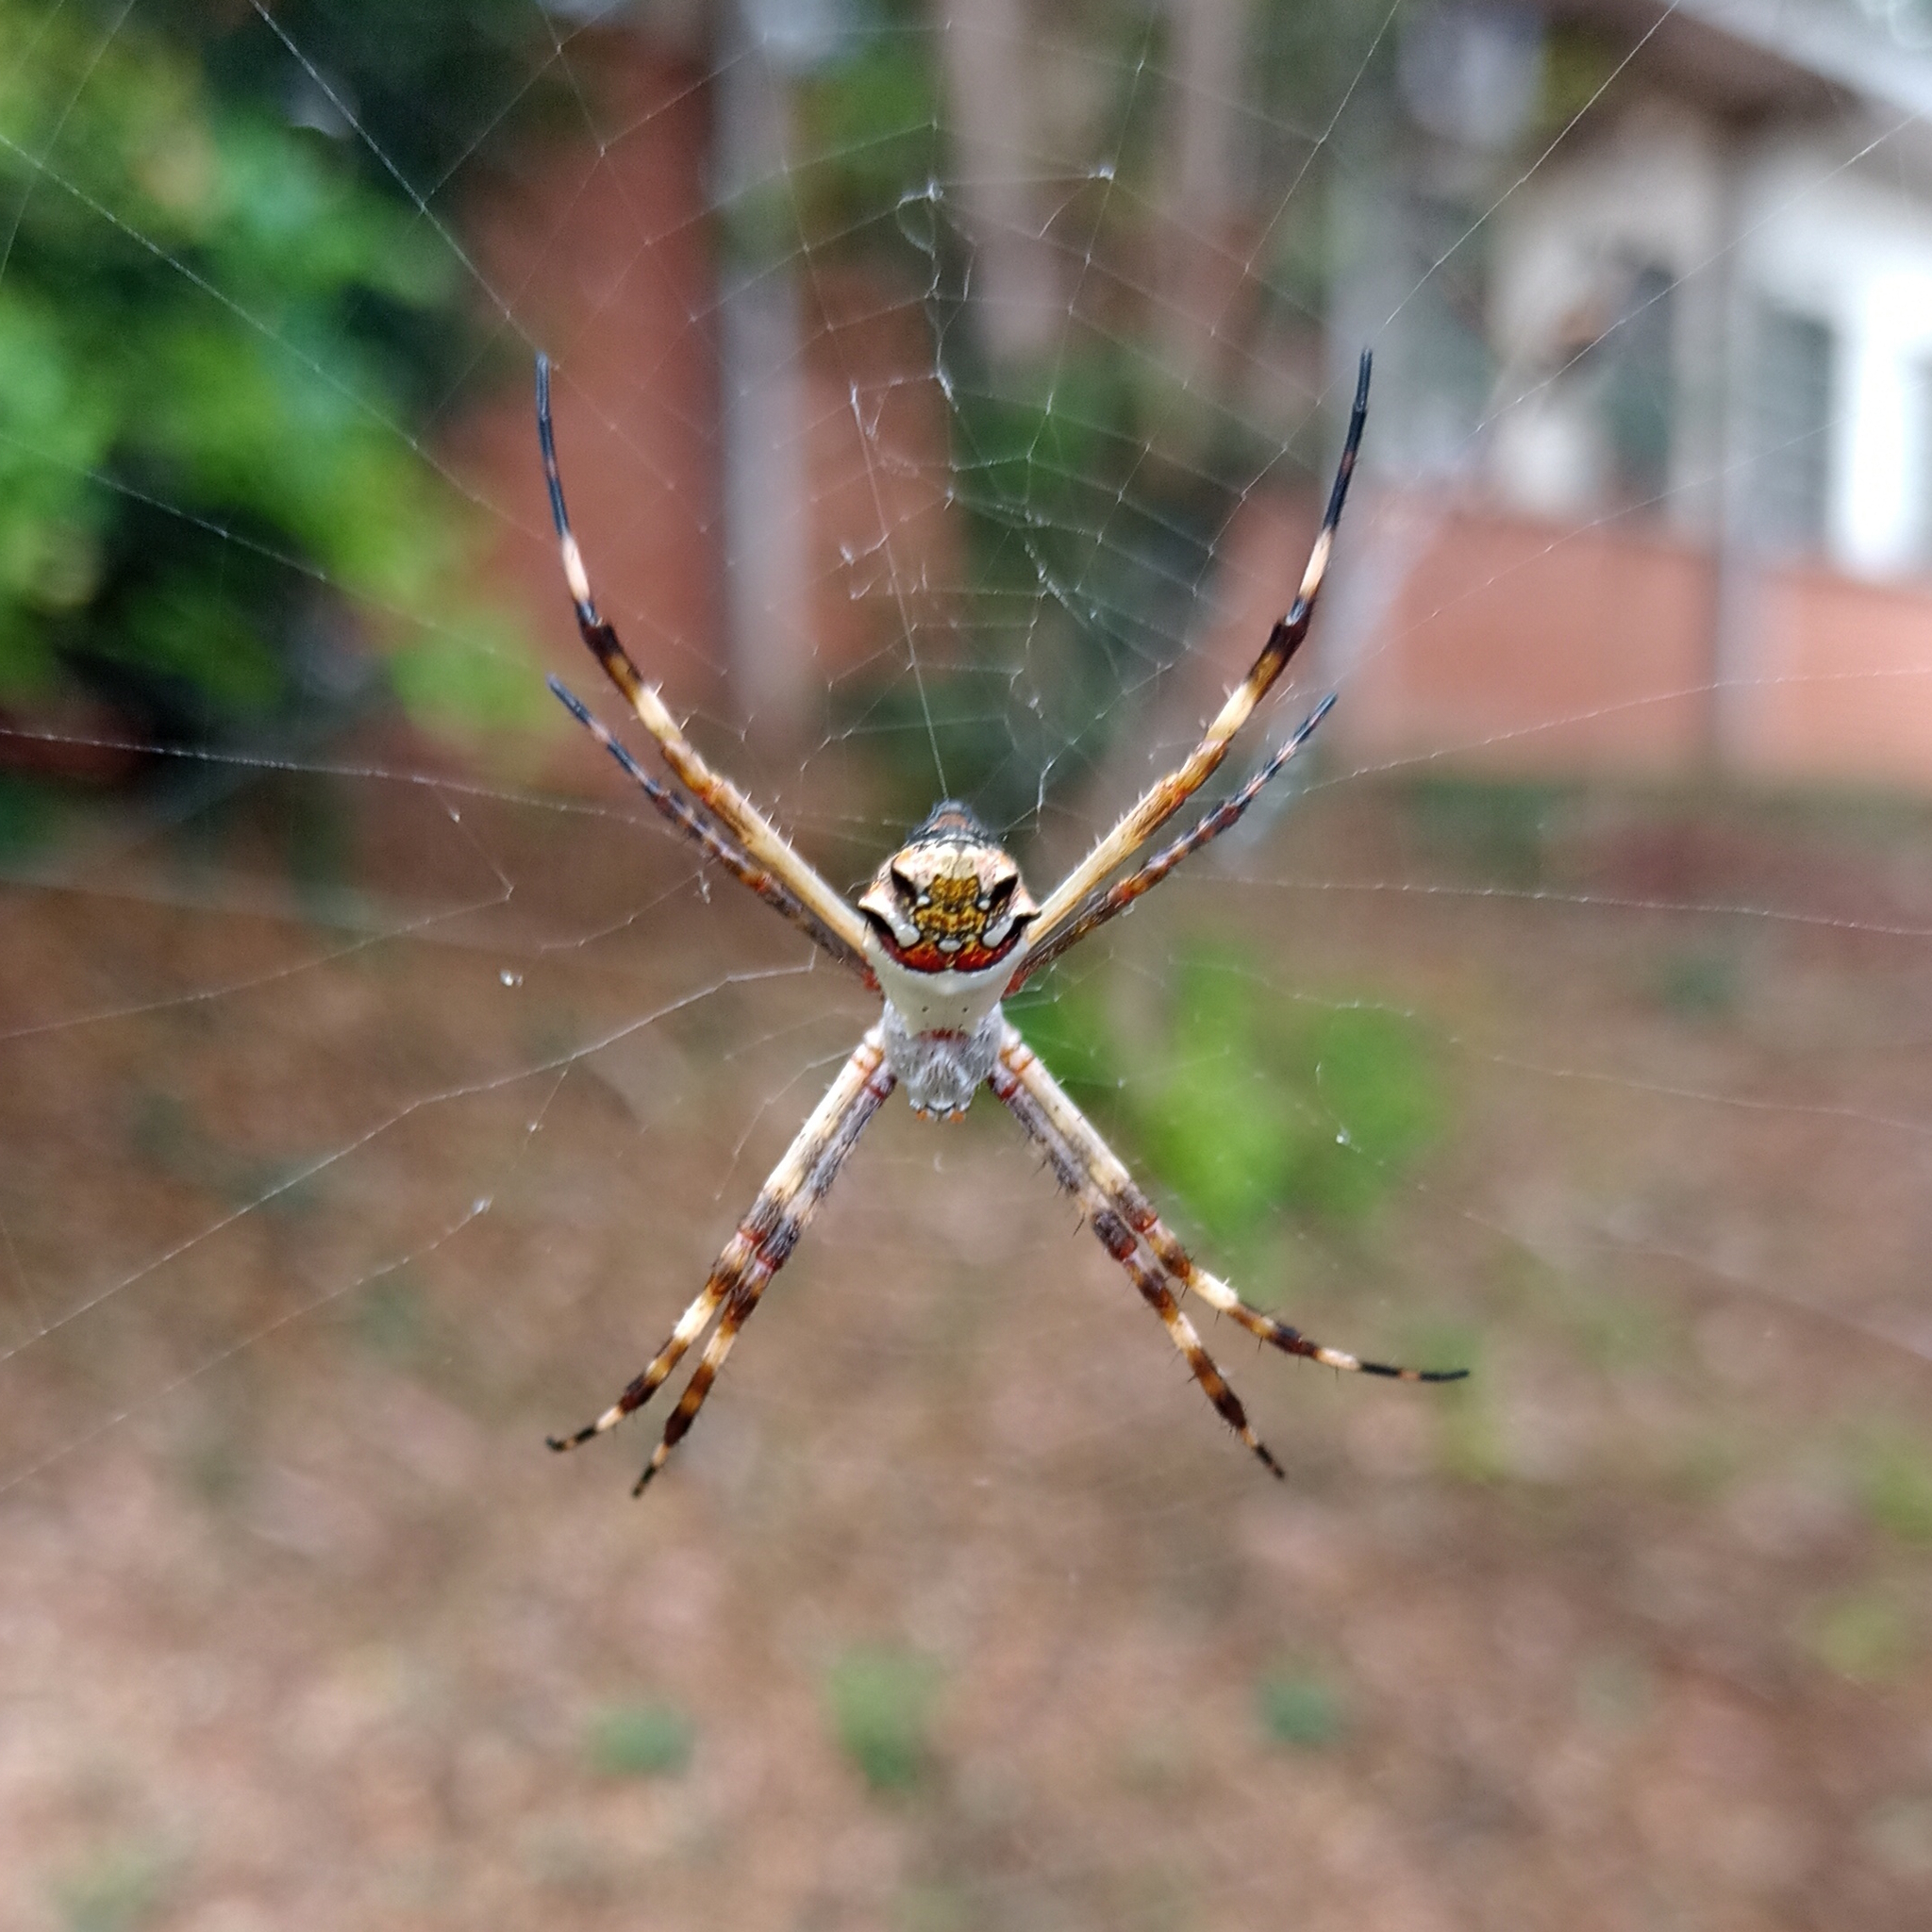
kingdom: Animalia
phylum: Arthropoda
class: Arachnida
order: Araneae
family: Araneidae
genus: Argiope
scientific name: Argiope argentata
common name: Orb weavers
